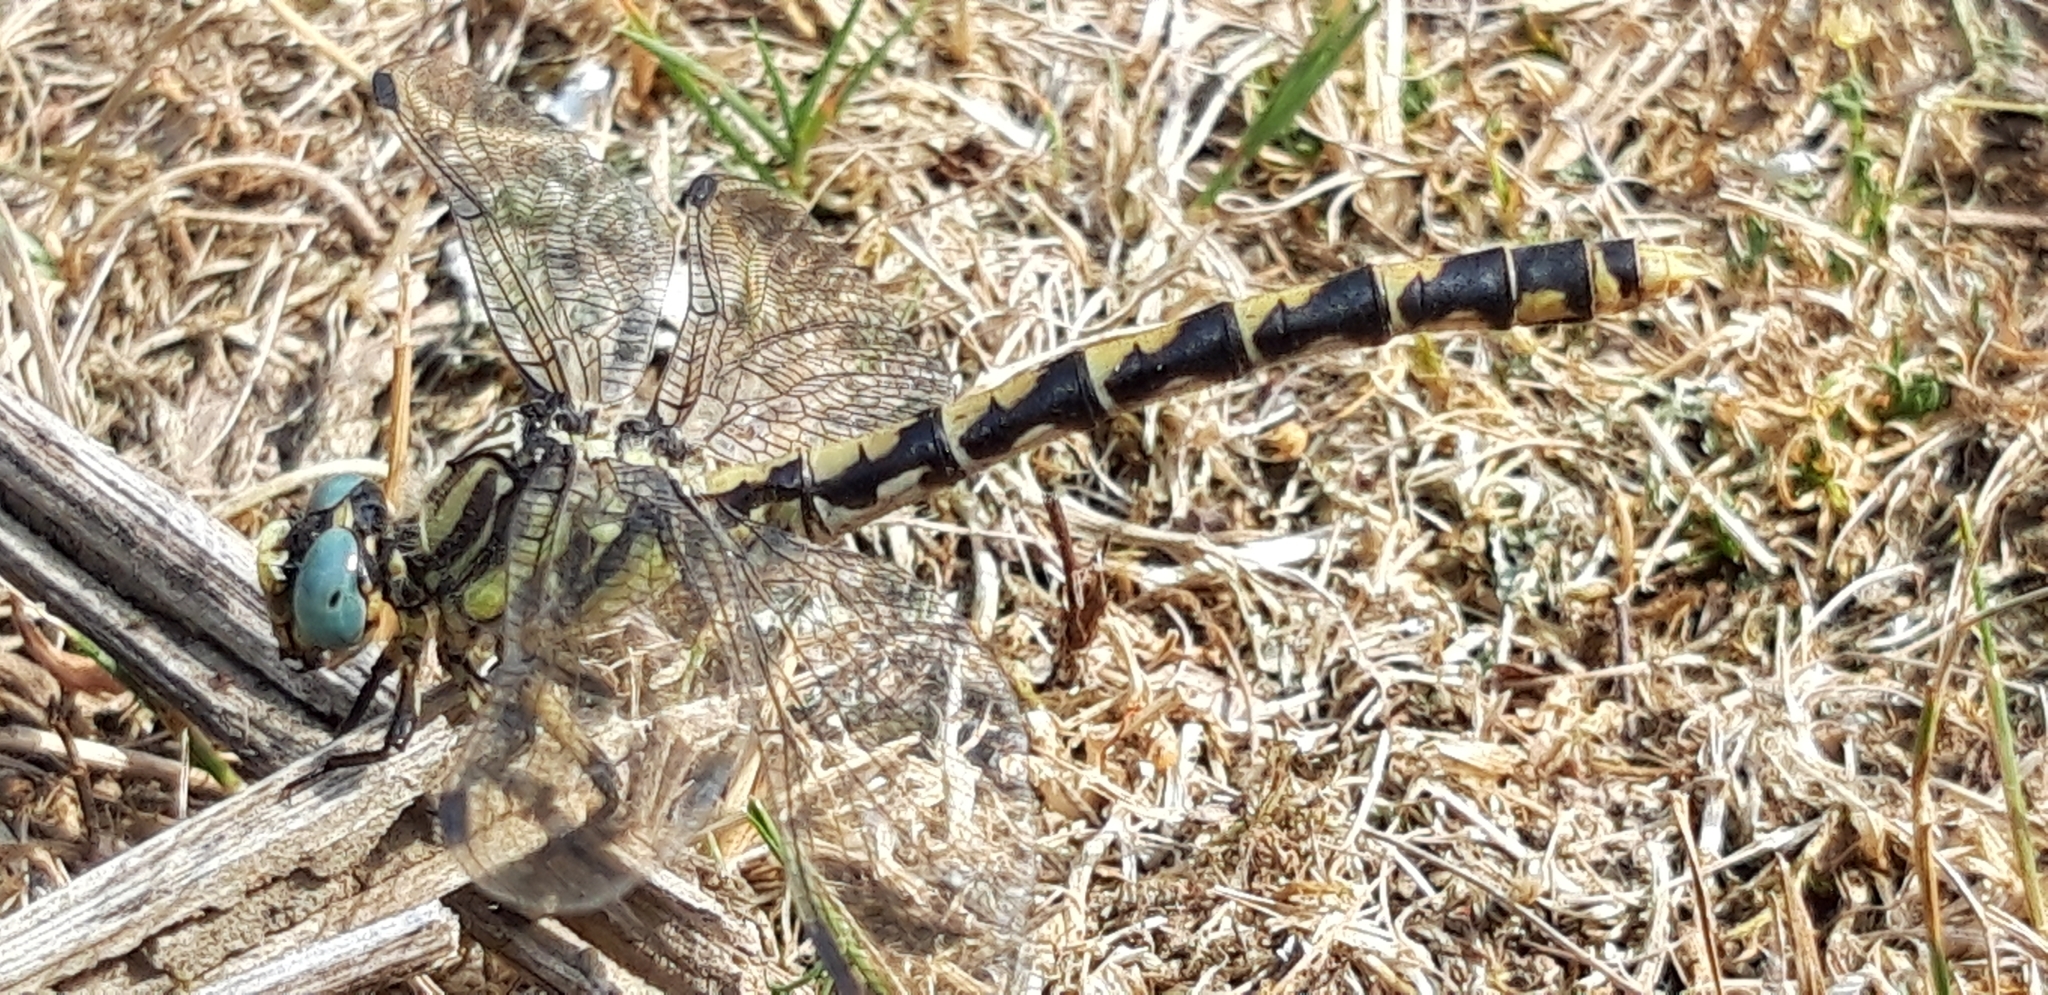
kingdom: Animalia
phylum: Arthropoda
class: Insecta
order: Odonata
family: Gomphidae
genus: Onychogomphus
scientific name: Onychogomphus uncatus
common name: Large pincertail
